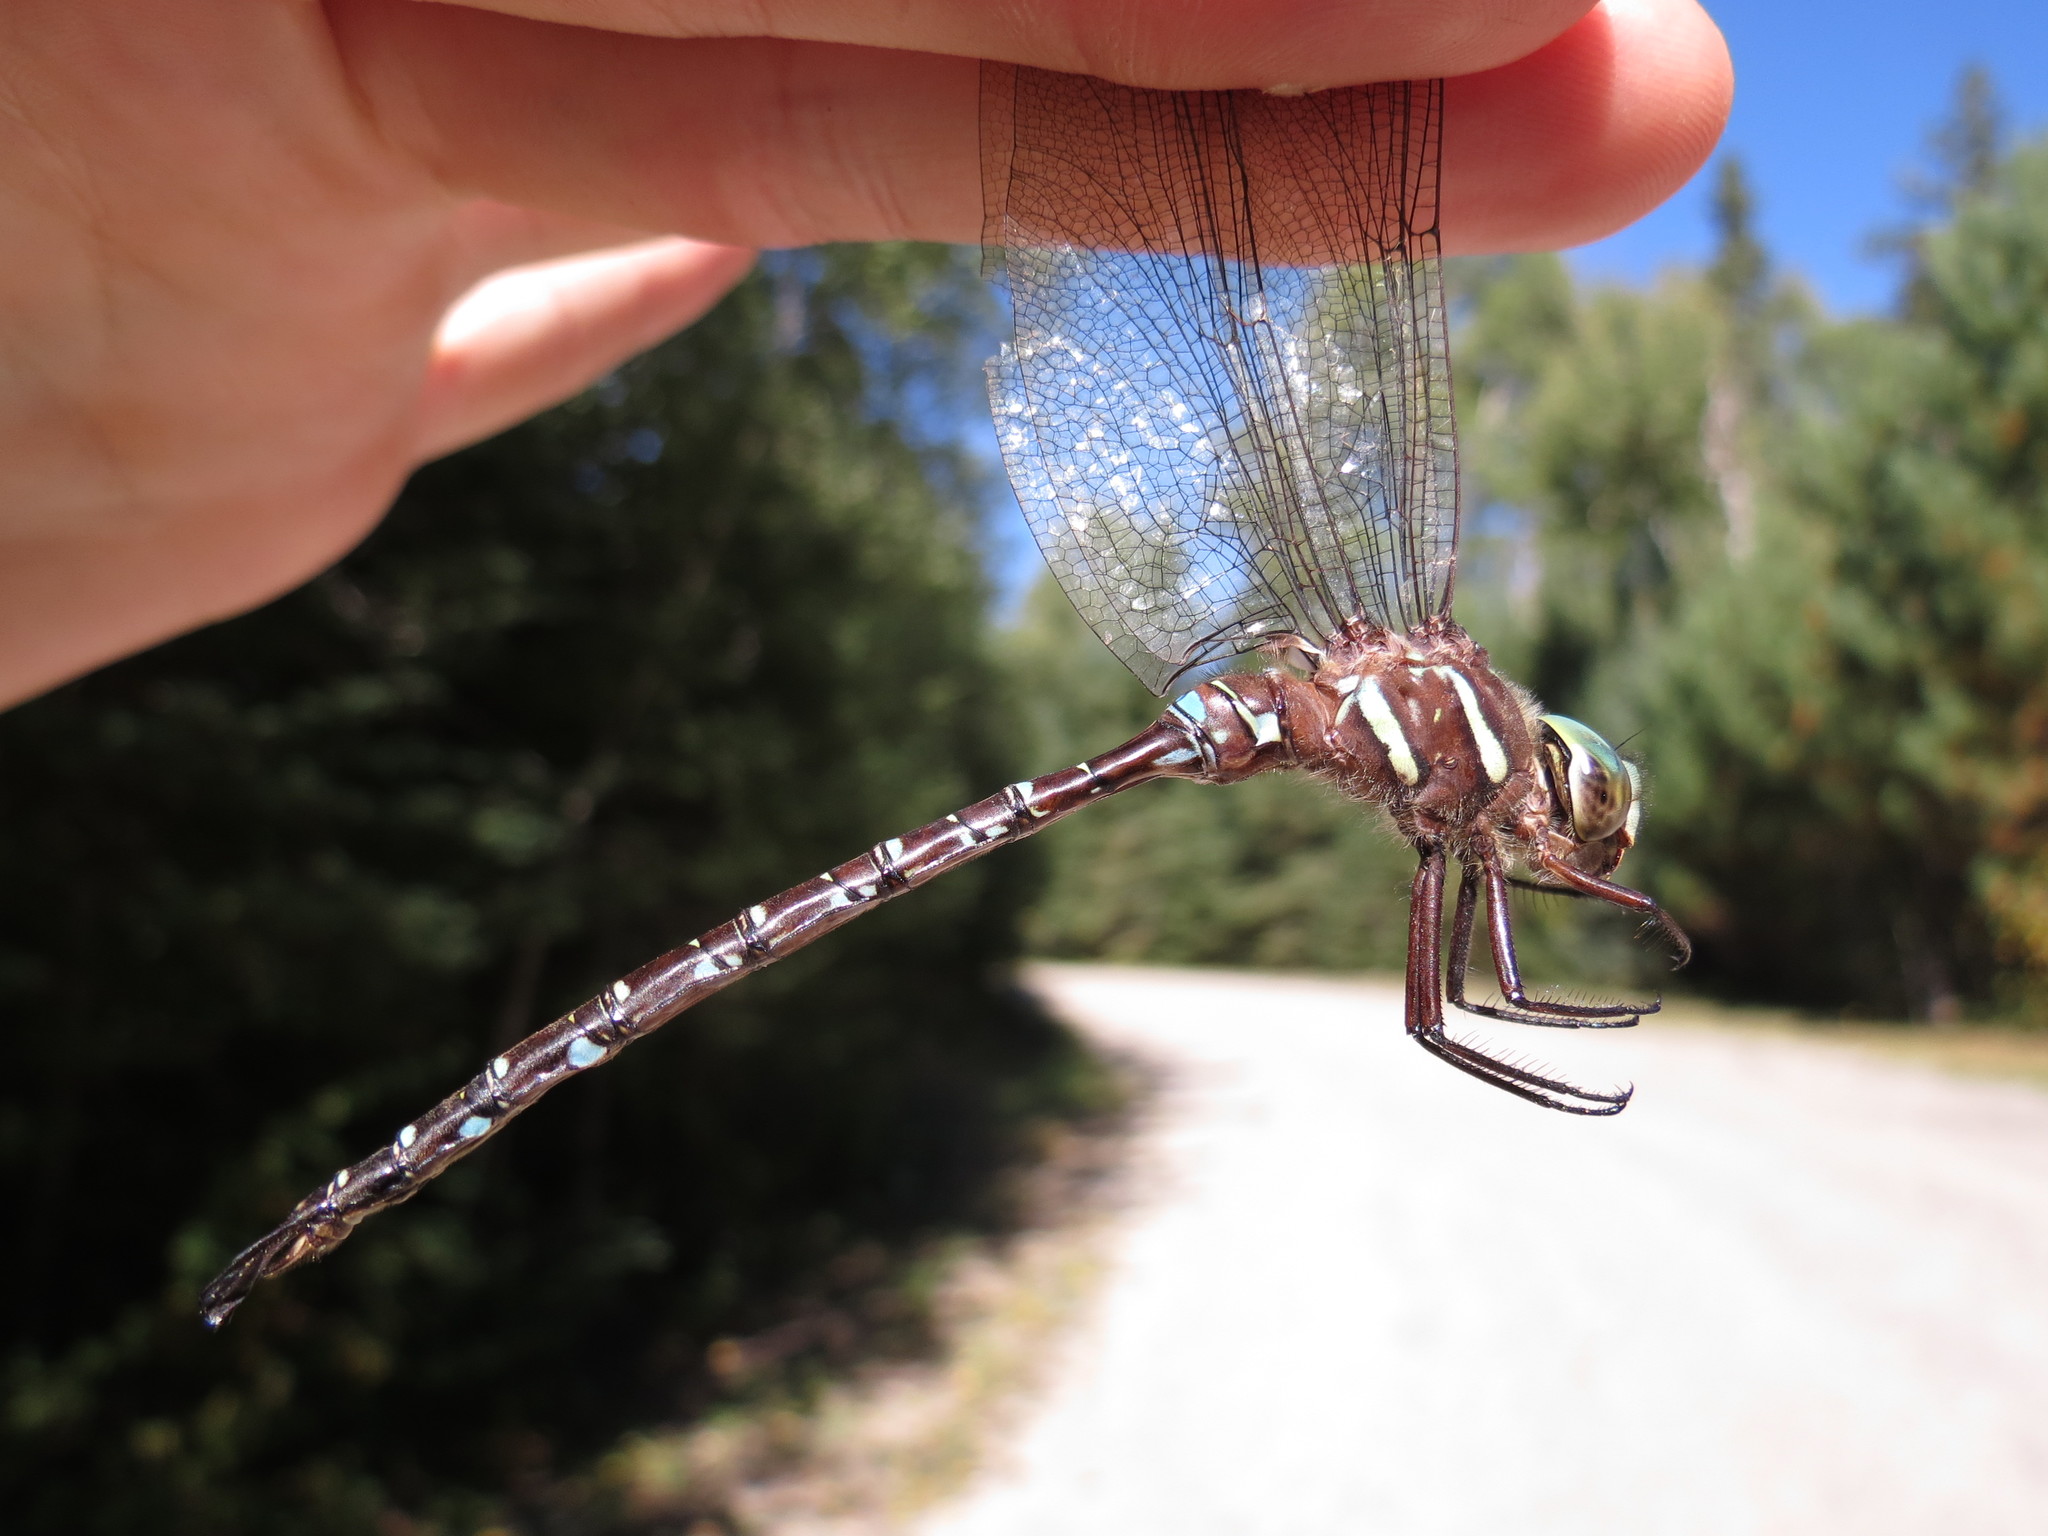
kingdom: Animalia
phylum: Arthropoda
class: Insecta
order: Odonata
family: Aeshnidae
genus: Aeshna
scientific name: Aeshna umbrosa
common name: Shadow darner
